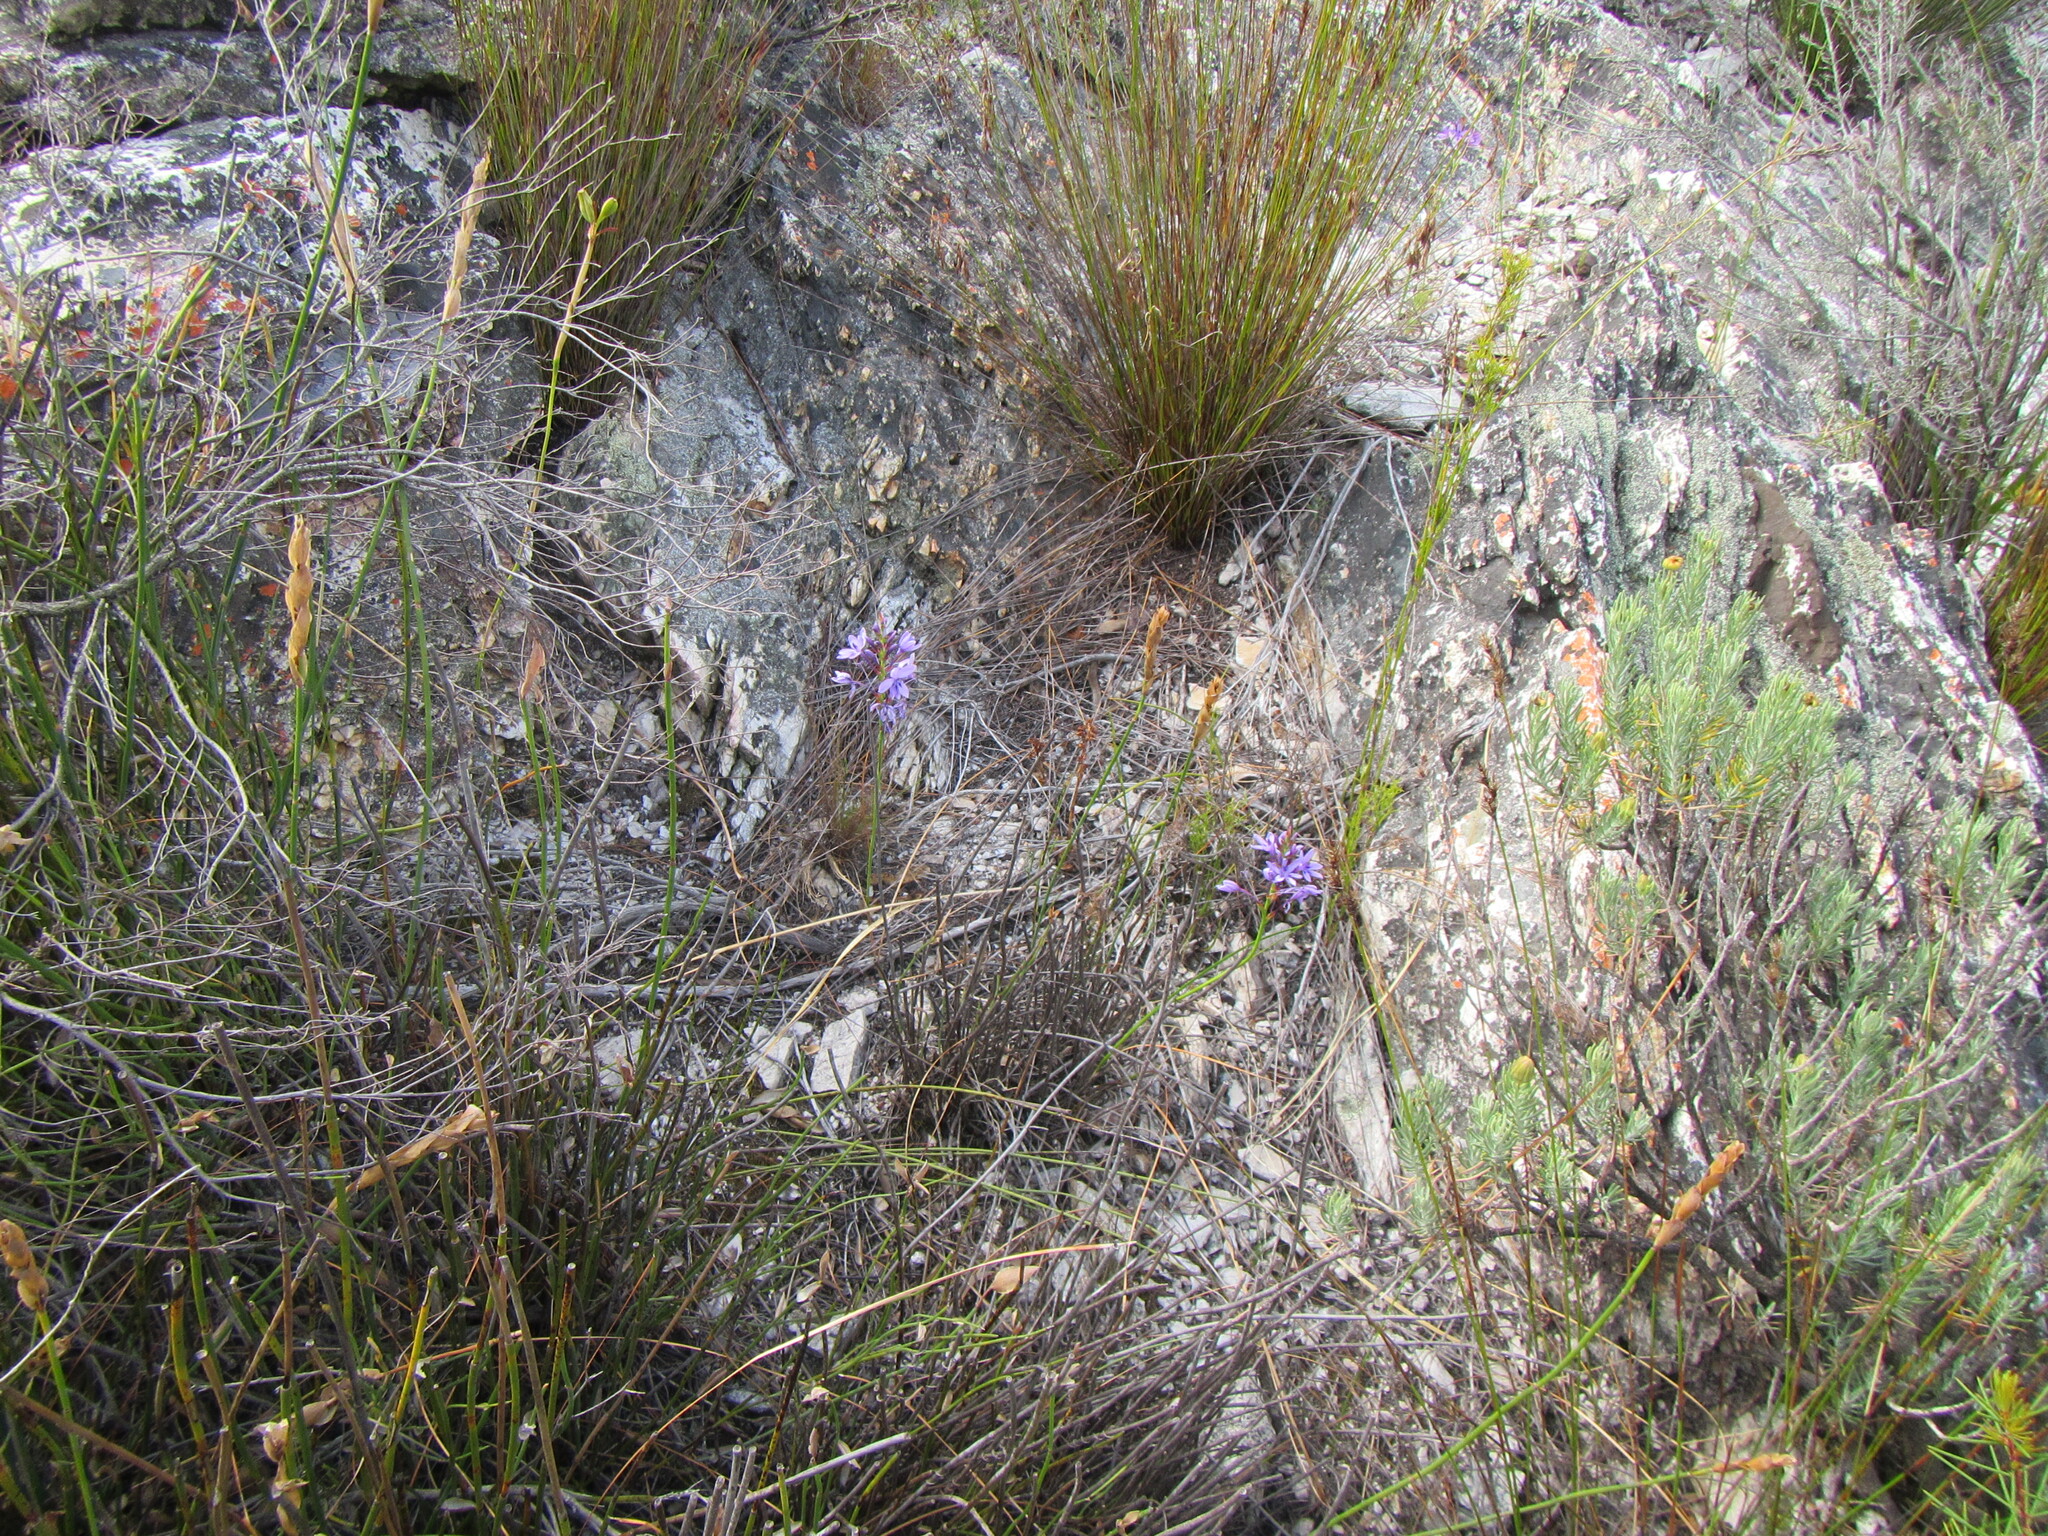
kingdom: Plantae
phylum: Tracheophyta
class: Liliopsida
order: Asparagales
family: Iridaceae
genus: Thereianthus
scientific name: Thereianthus spicatus
